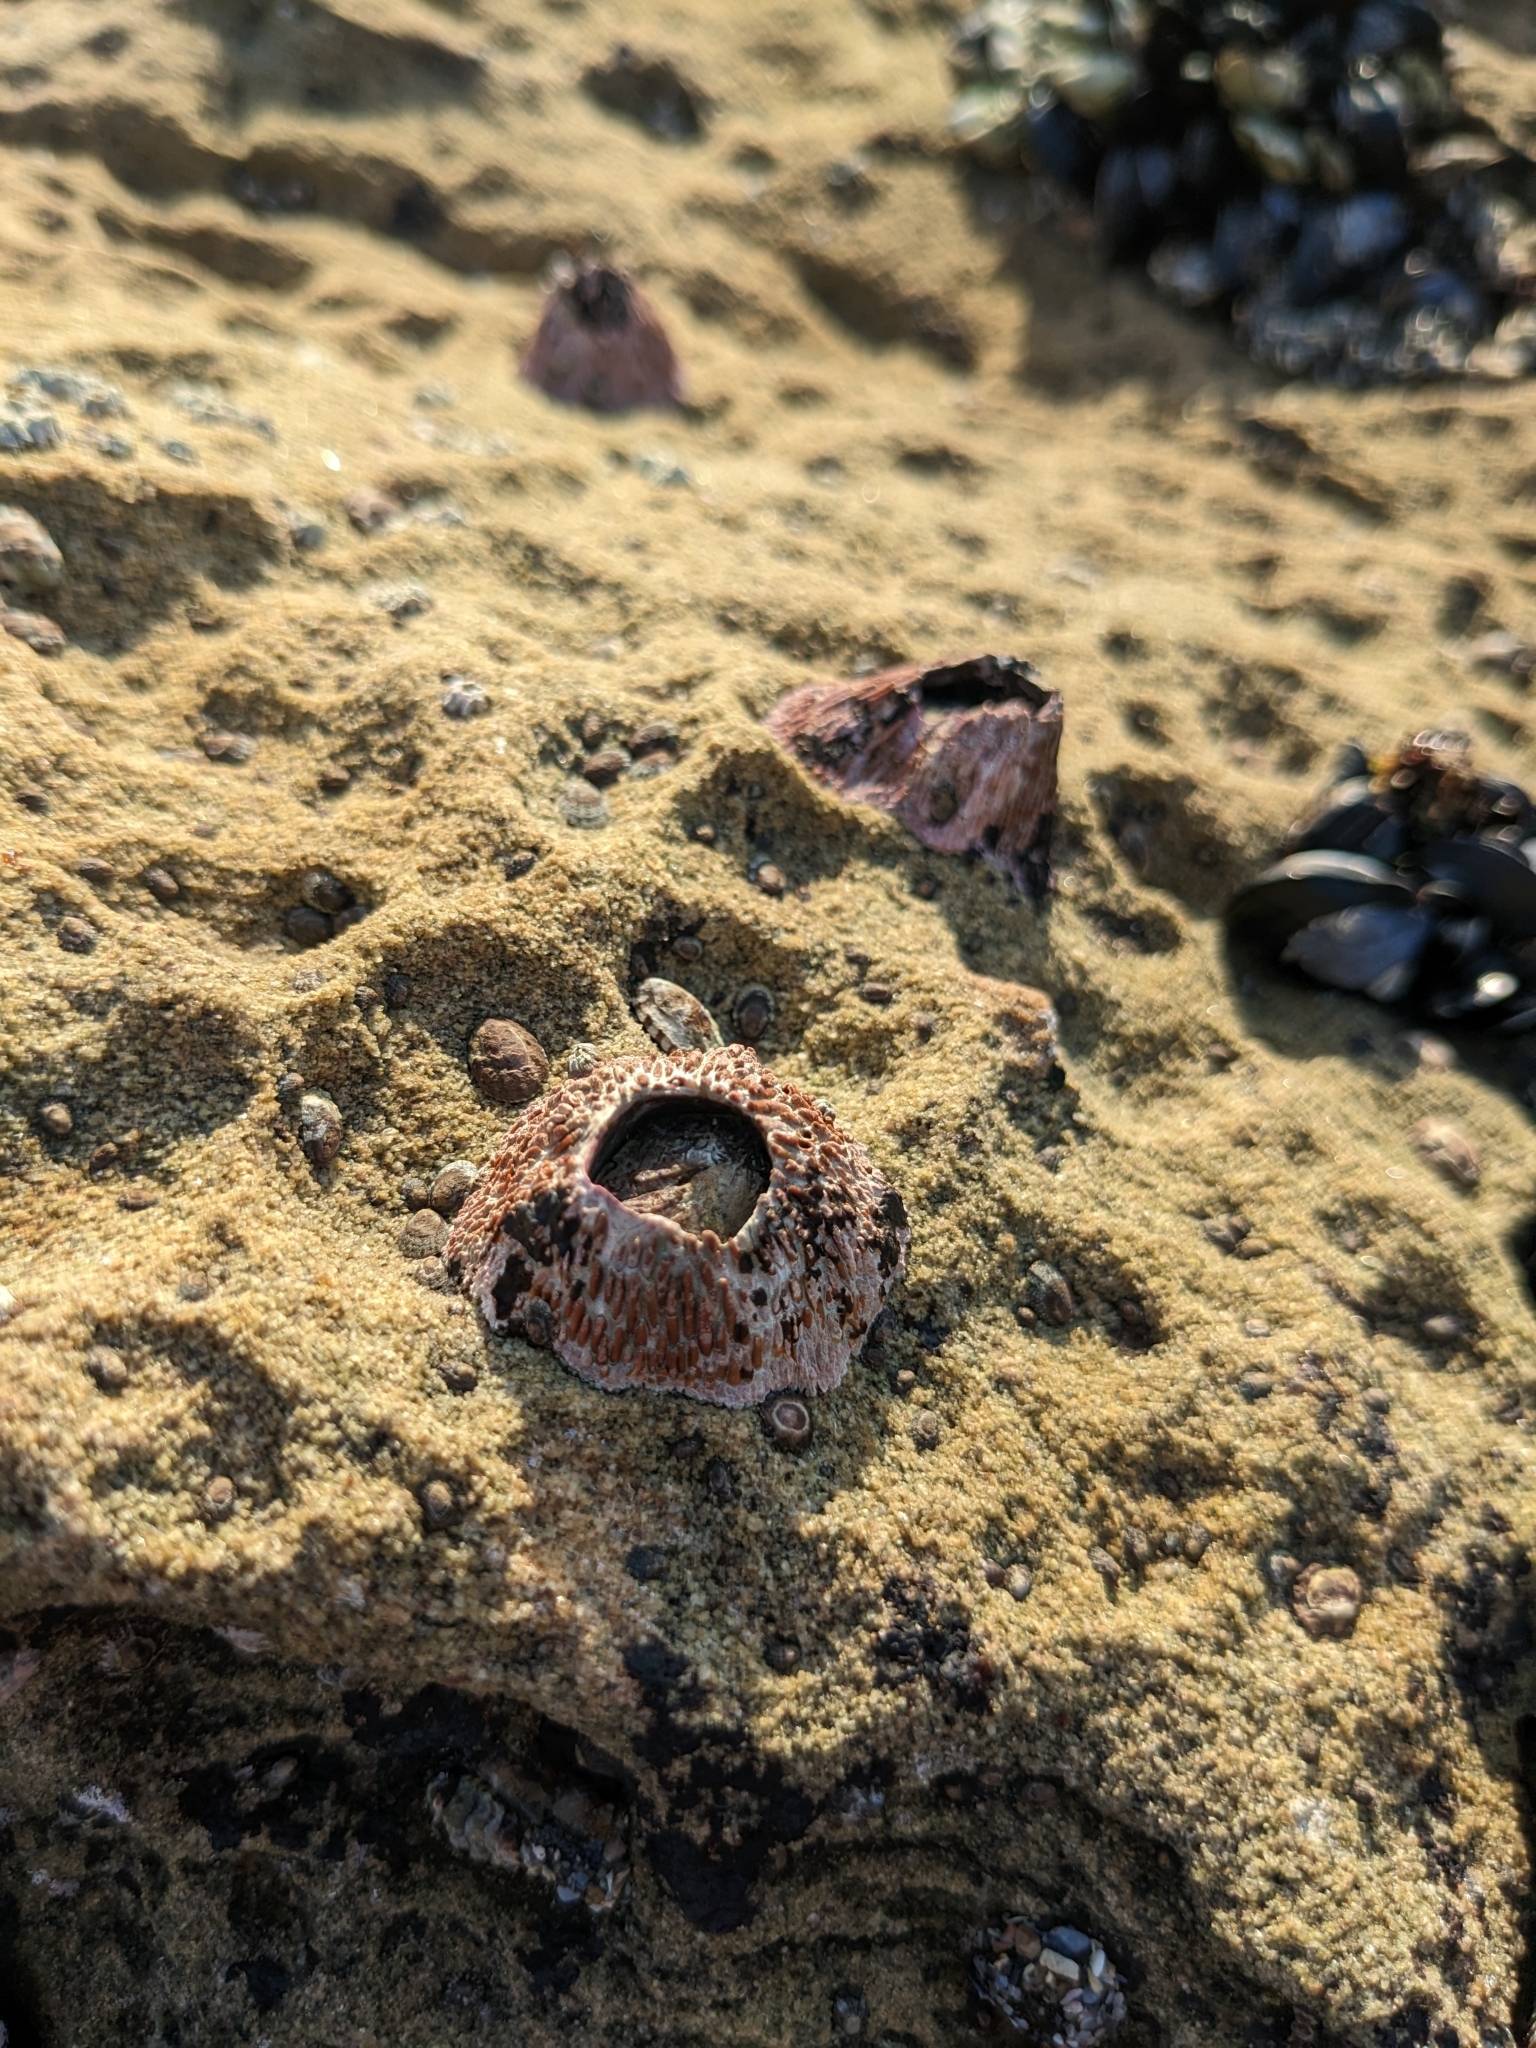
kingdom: Animalia
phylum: Arthropoda
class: Maxillopoda
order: Sessilia
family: Tetraclitidae
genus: Tetraclita
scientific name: Tetraclita rubescens
